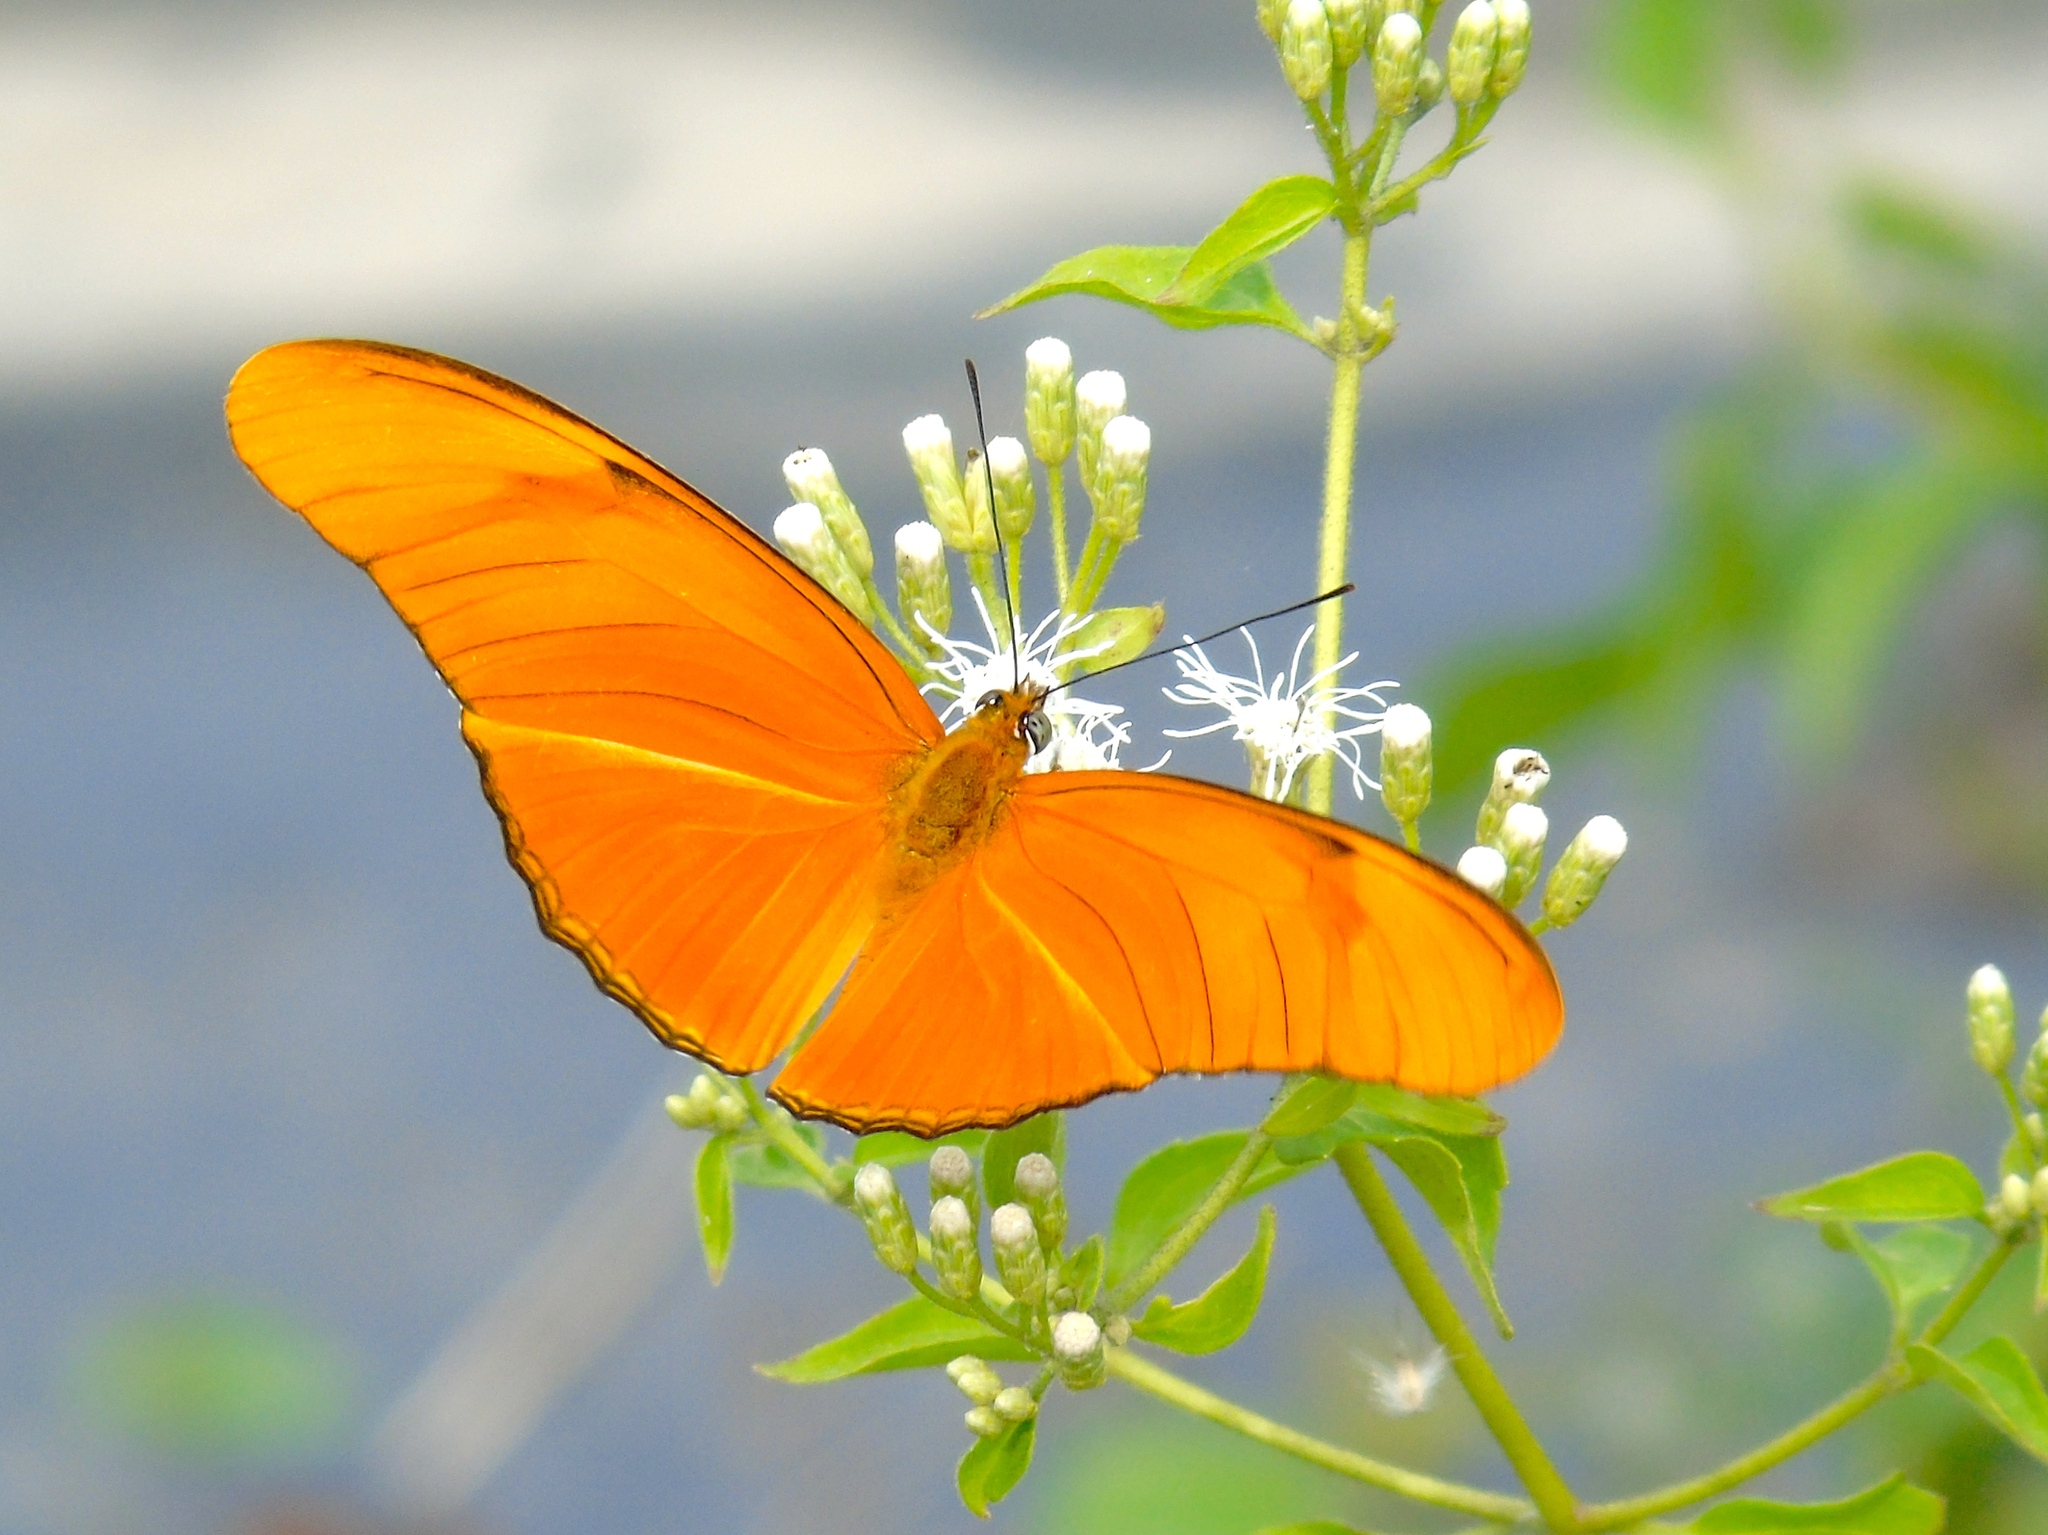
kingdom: Animalia
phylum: Arthropoda
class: Insecta
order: Lepidoptera
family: Nymphalidae
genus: Dryas
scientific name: Dryas iulia
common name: Flambeau
